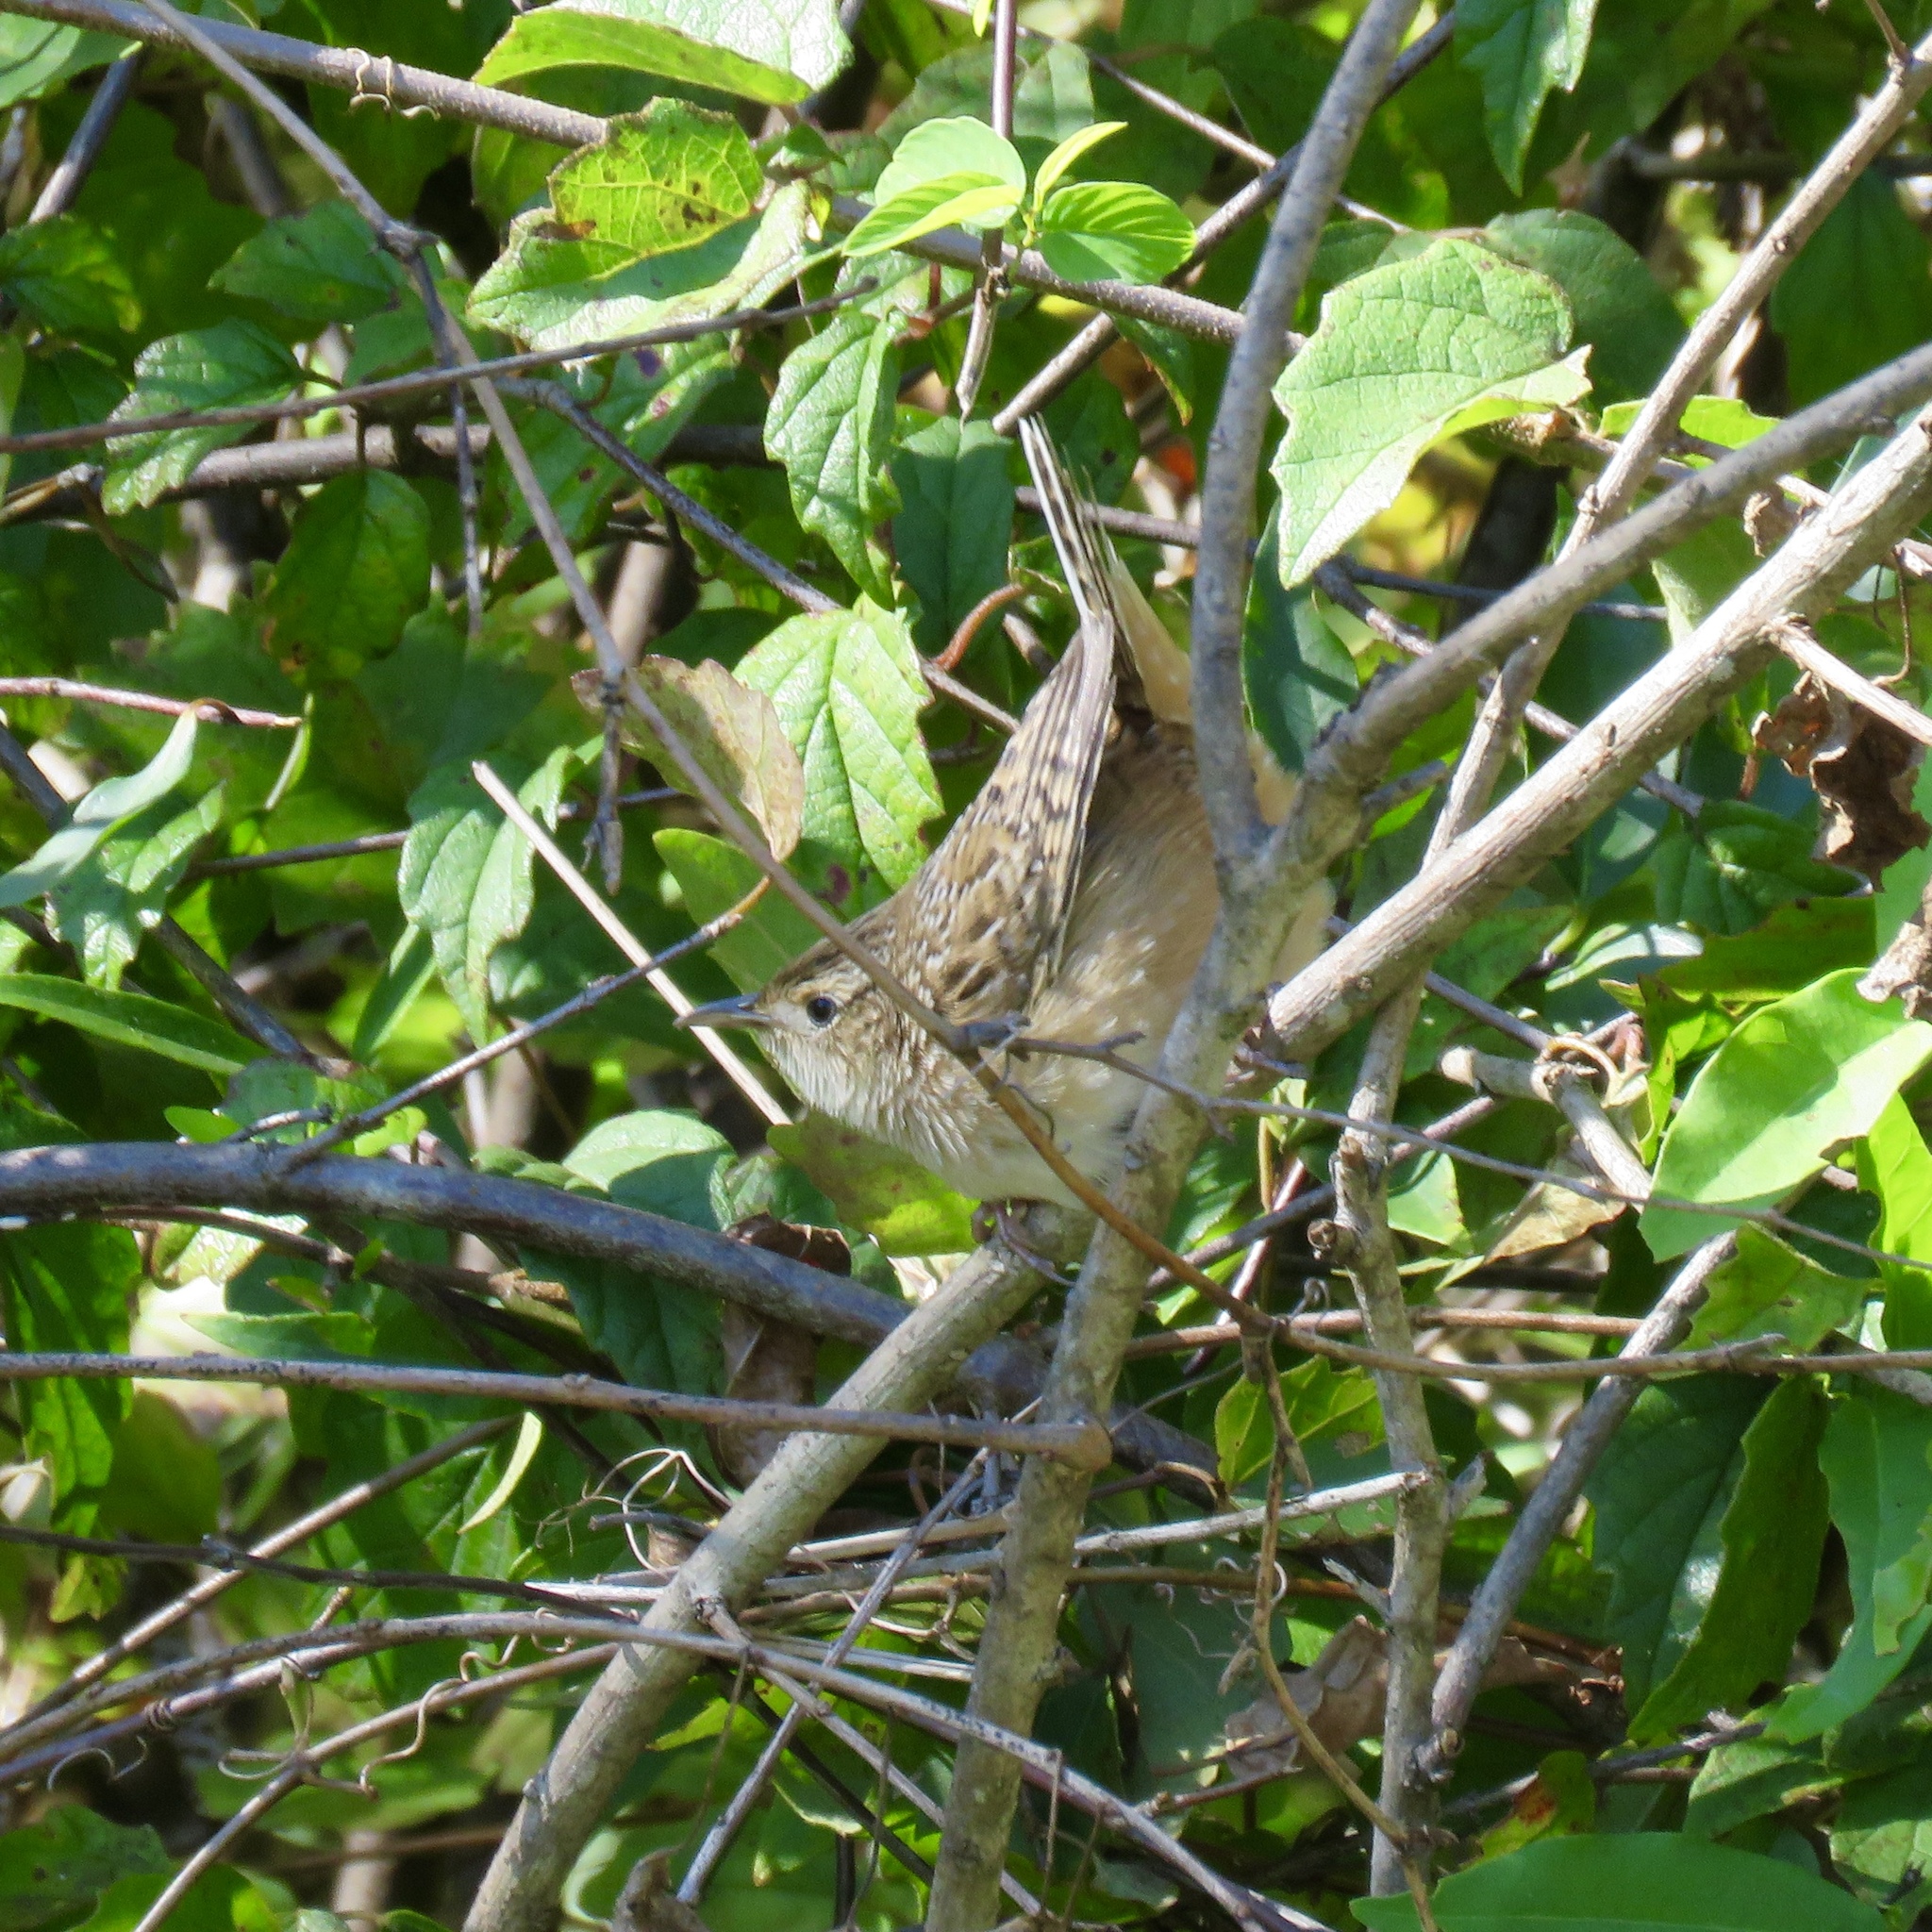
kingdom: Animalia
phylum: Chordata
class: Aves
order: Passeriformes
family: Troglodytidae
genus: Cistothorus
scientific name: Cistothorus platensis
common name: Sedge wren
